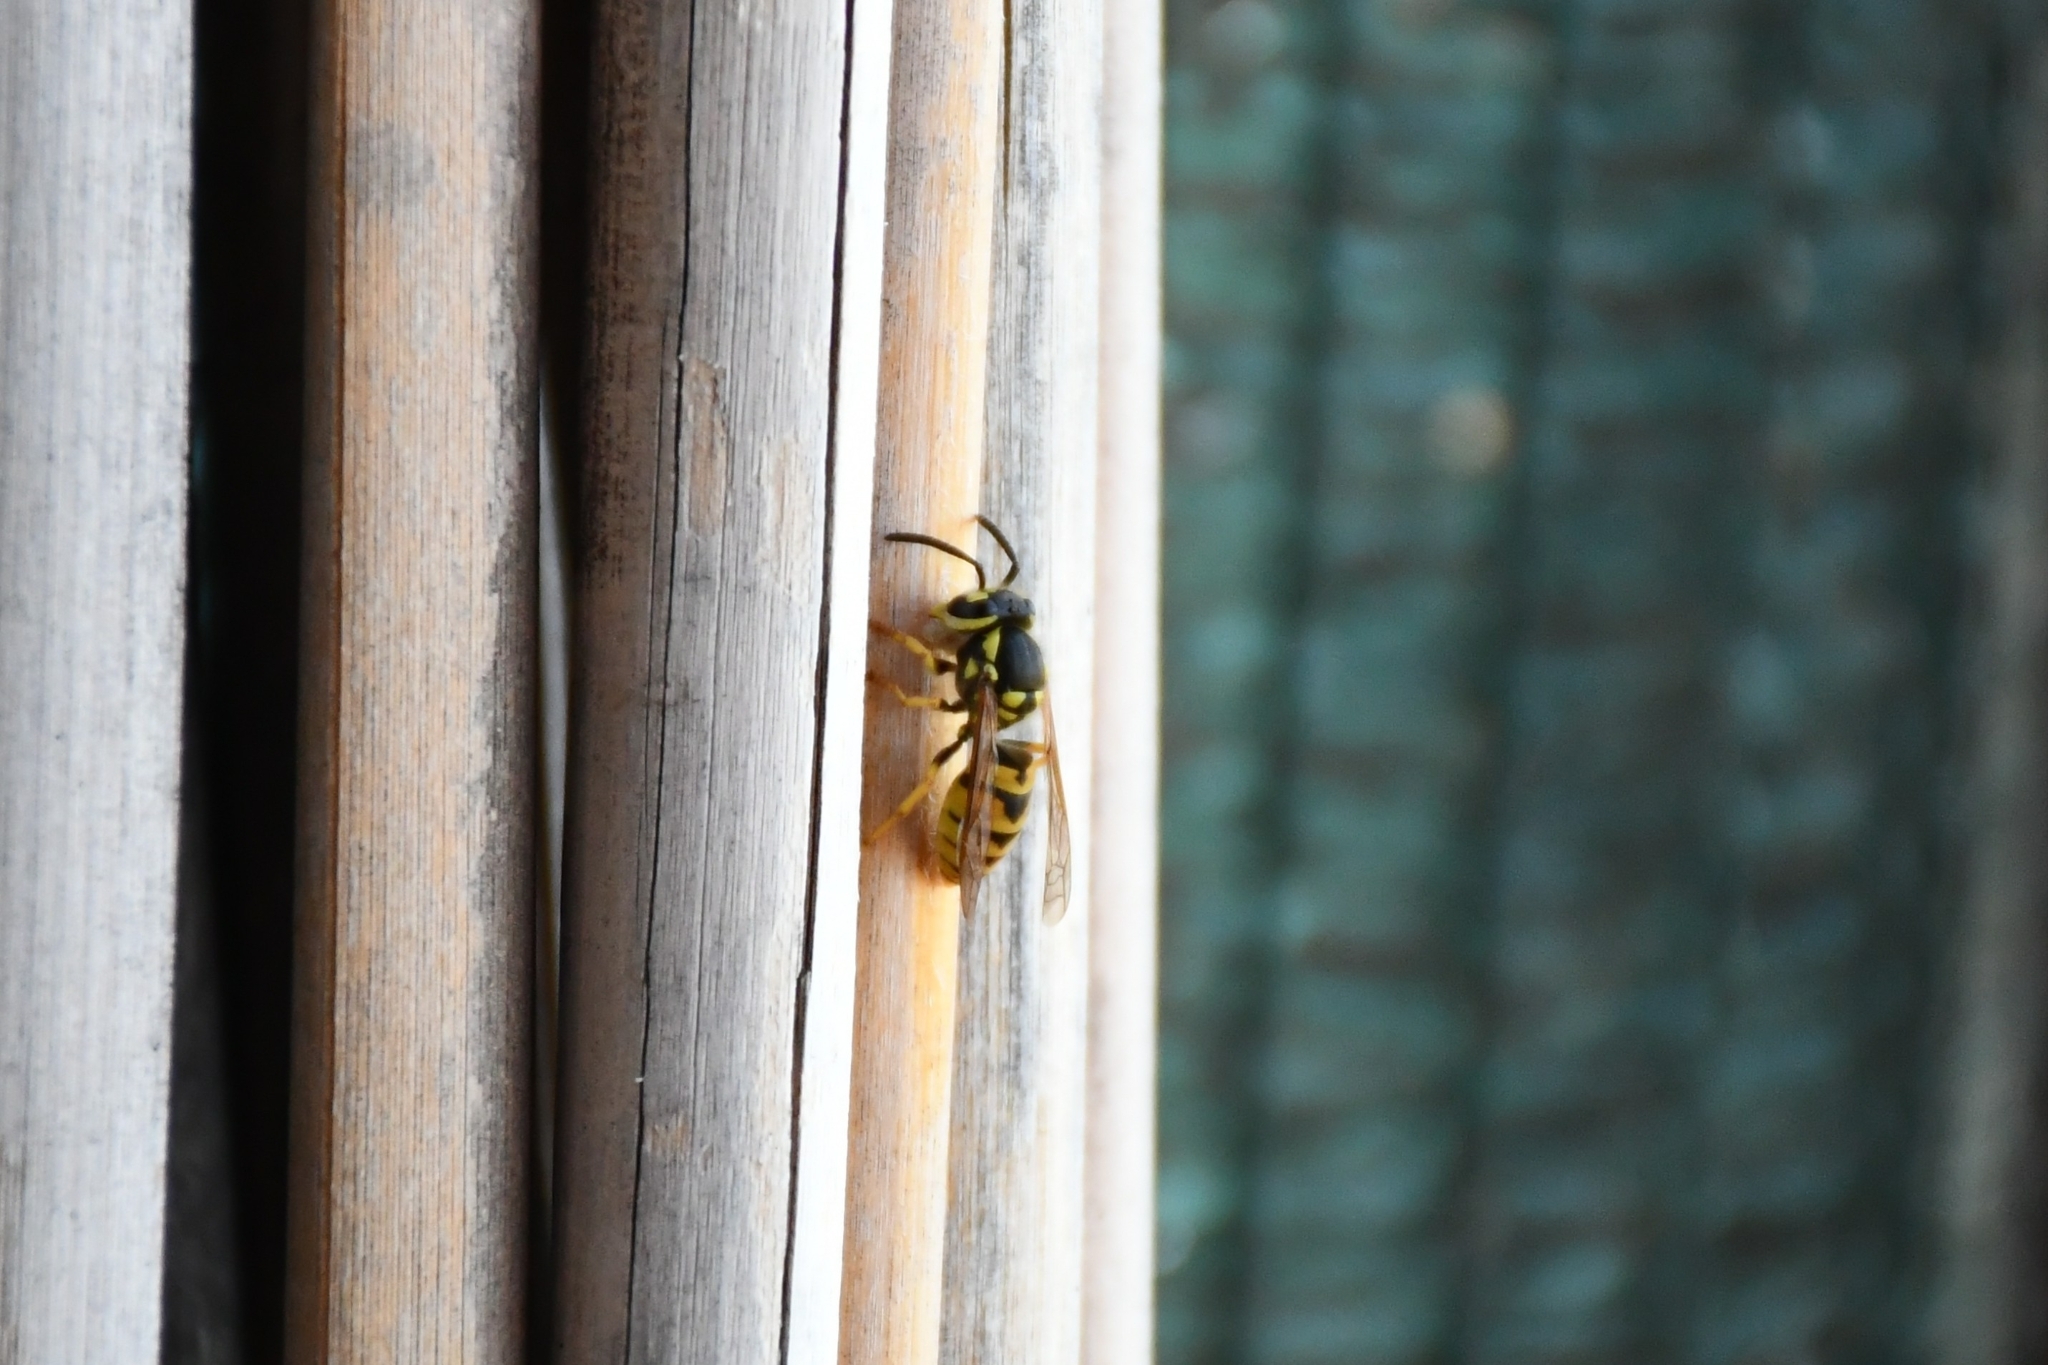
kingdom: Animalia
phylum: Arthropoda
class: Insecta
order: Hymenoptera
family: Vespidae
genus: Vespula
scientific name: Vespula germanica
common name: German wasp
